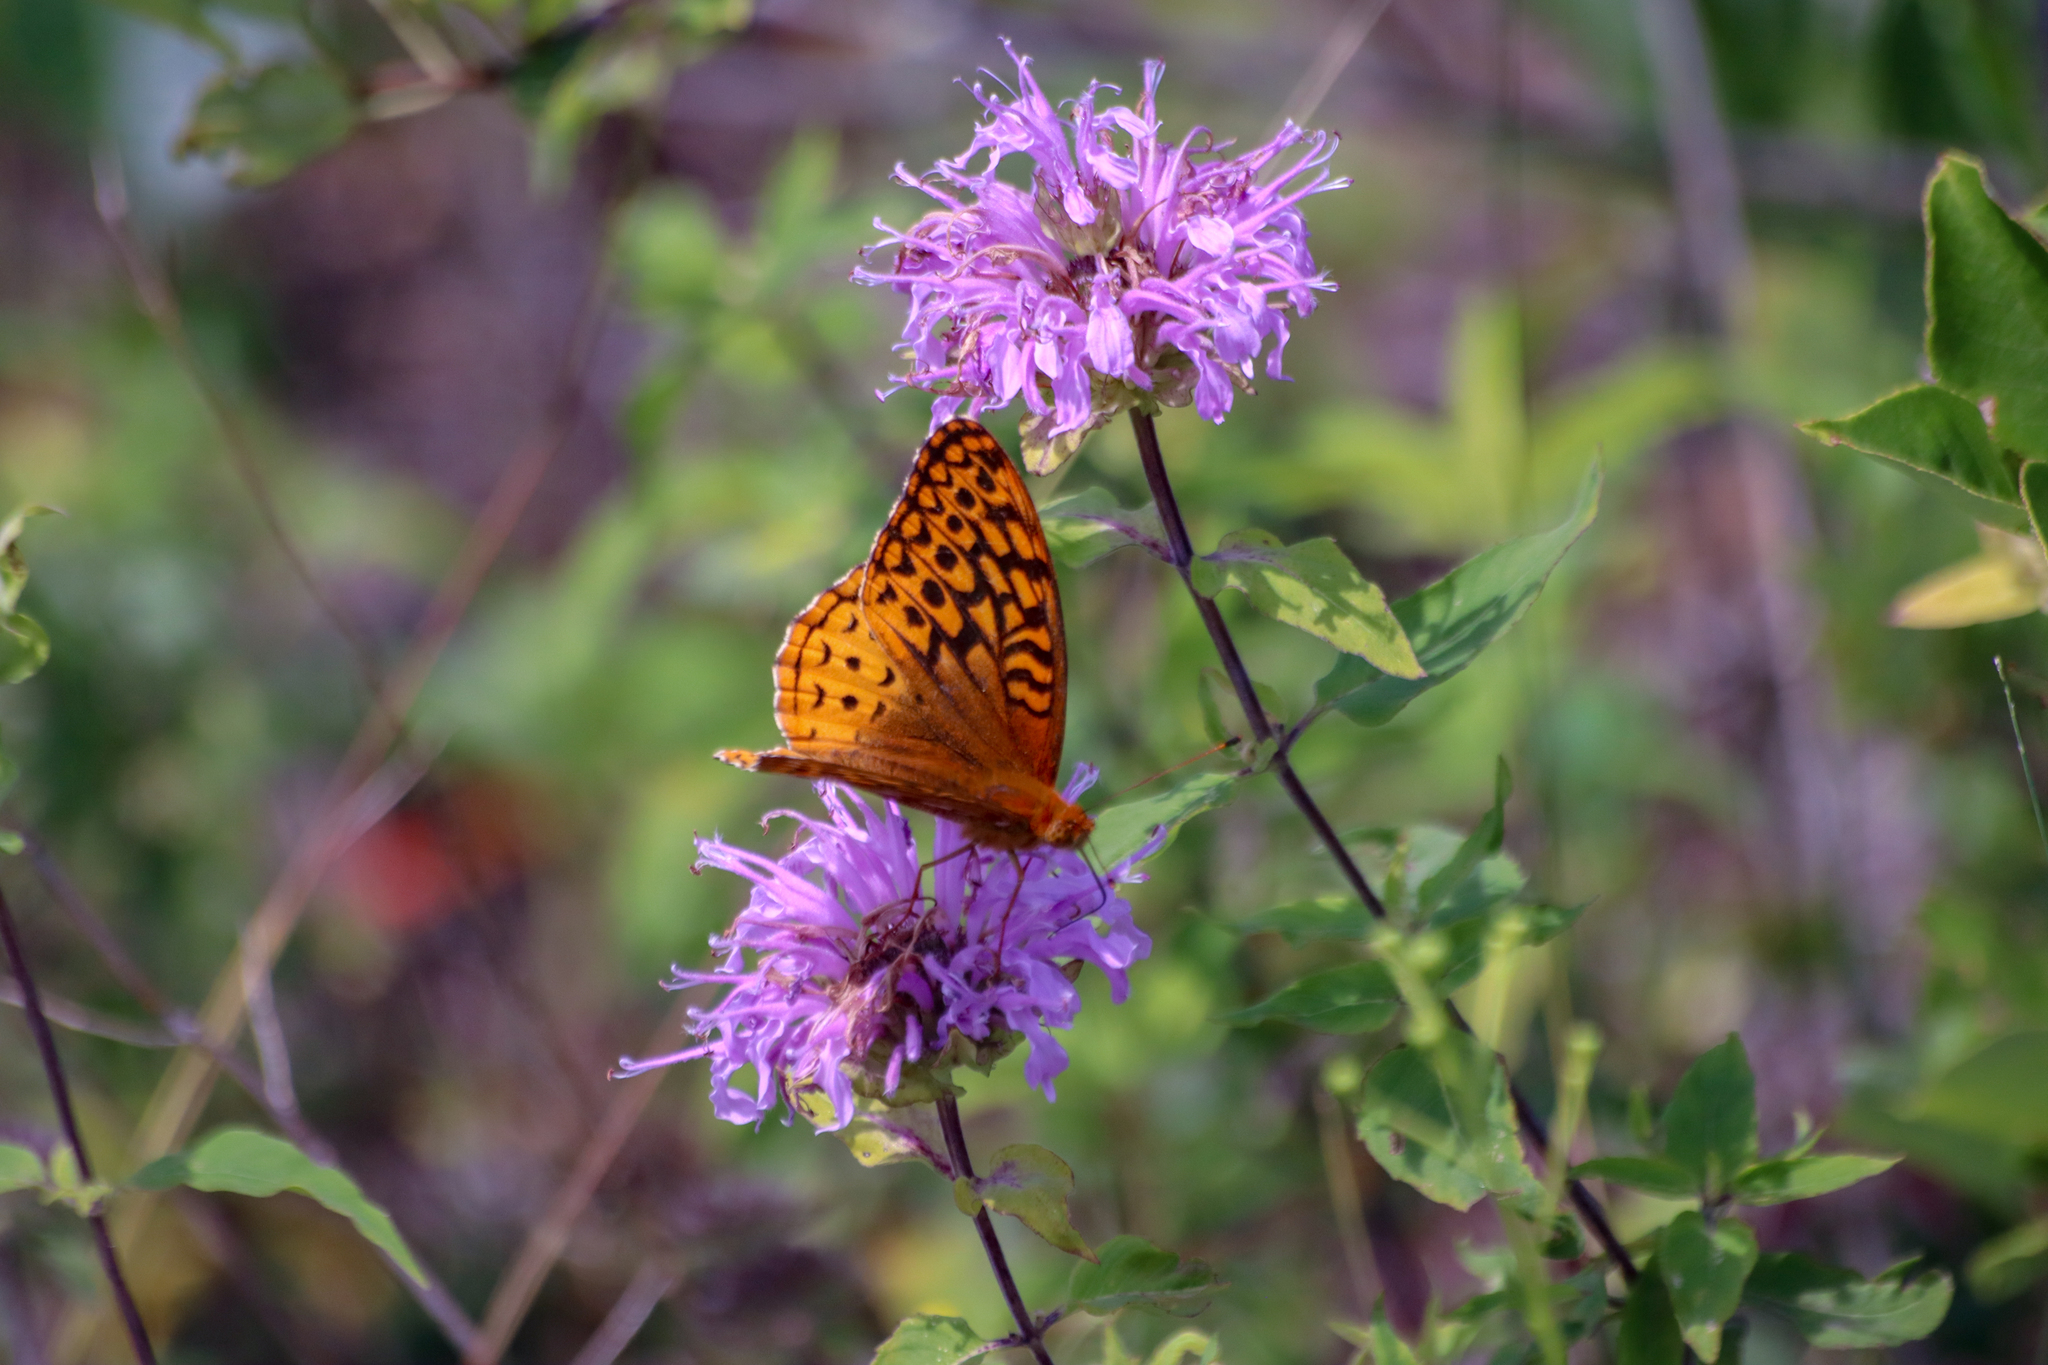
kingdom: Animalia
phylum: Arthropoda
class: Insecta
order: Lepidoptera
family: Nymphalidae
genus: Speyeria
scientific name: Speyeria cybele
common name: Great spangled fritillary
